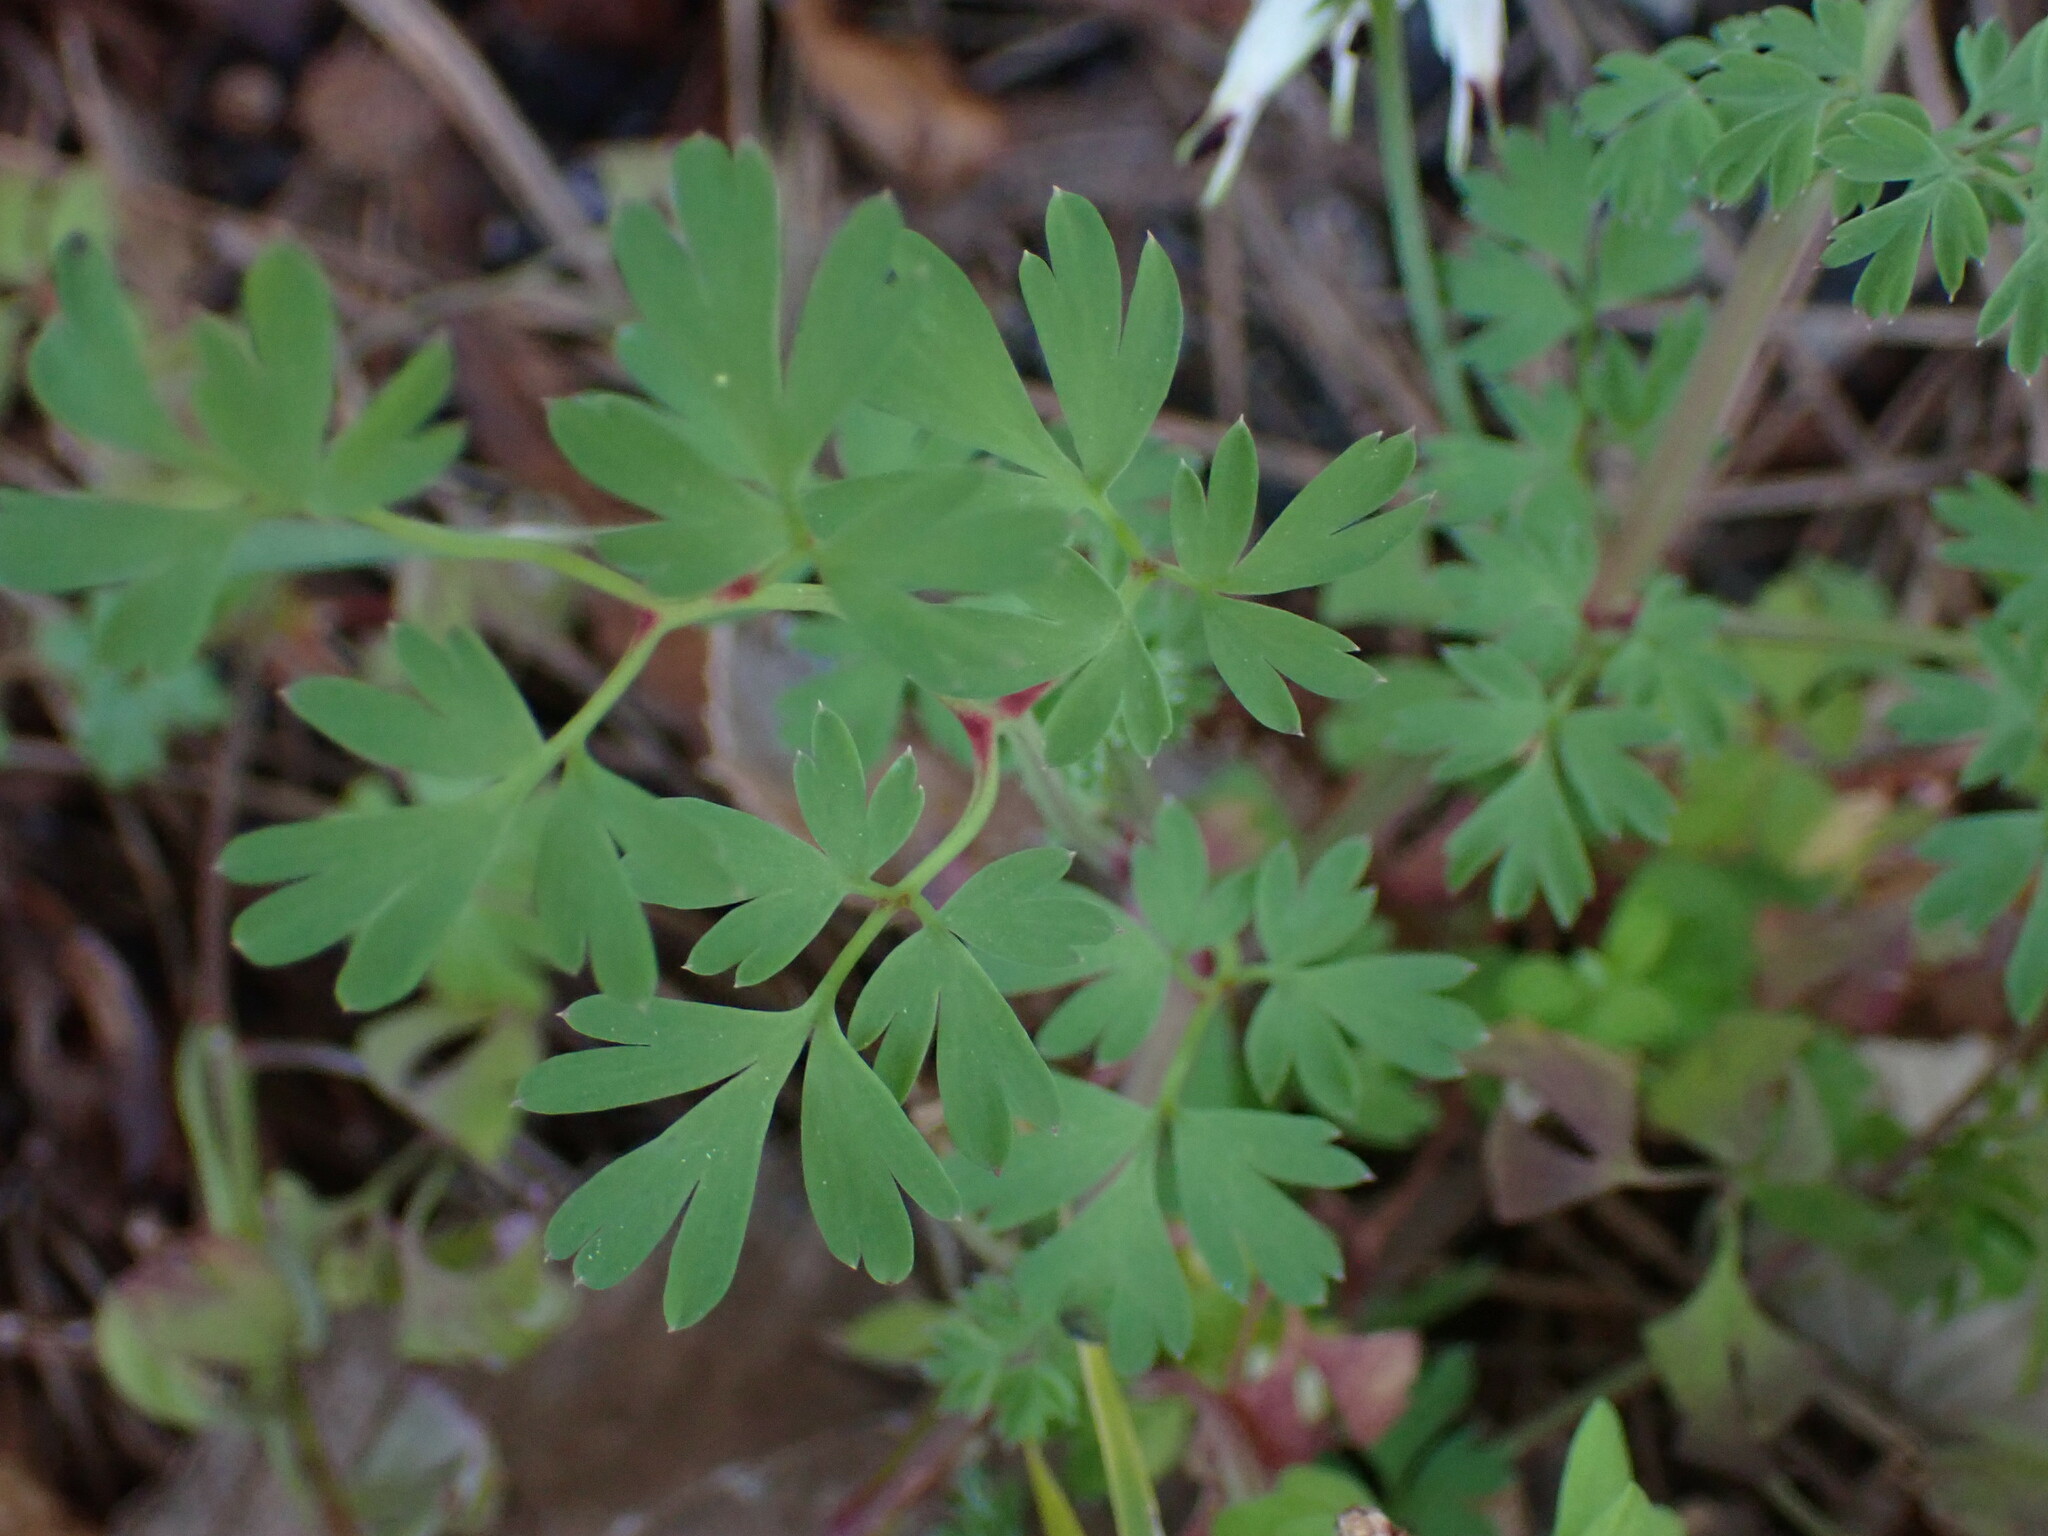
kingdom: Plantae
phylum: Tracheophyta
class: Magnoliopsida
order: Ranunculales
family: Papaveraceae
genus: Fumaria
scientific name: Fumaria capreolata
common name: White ramping-fumitory
